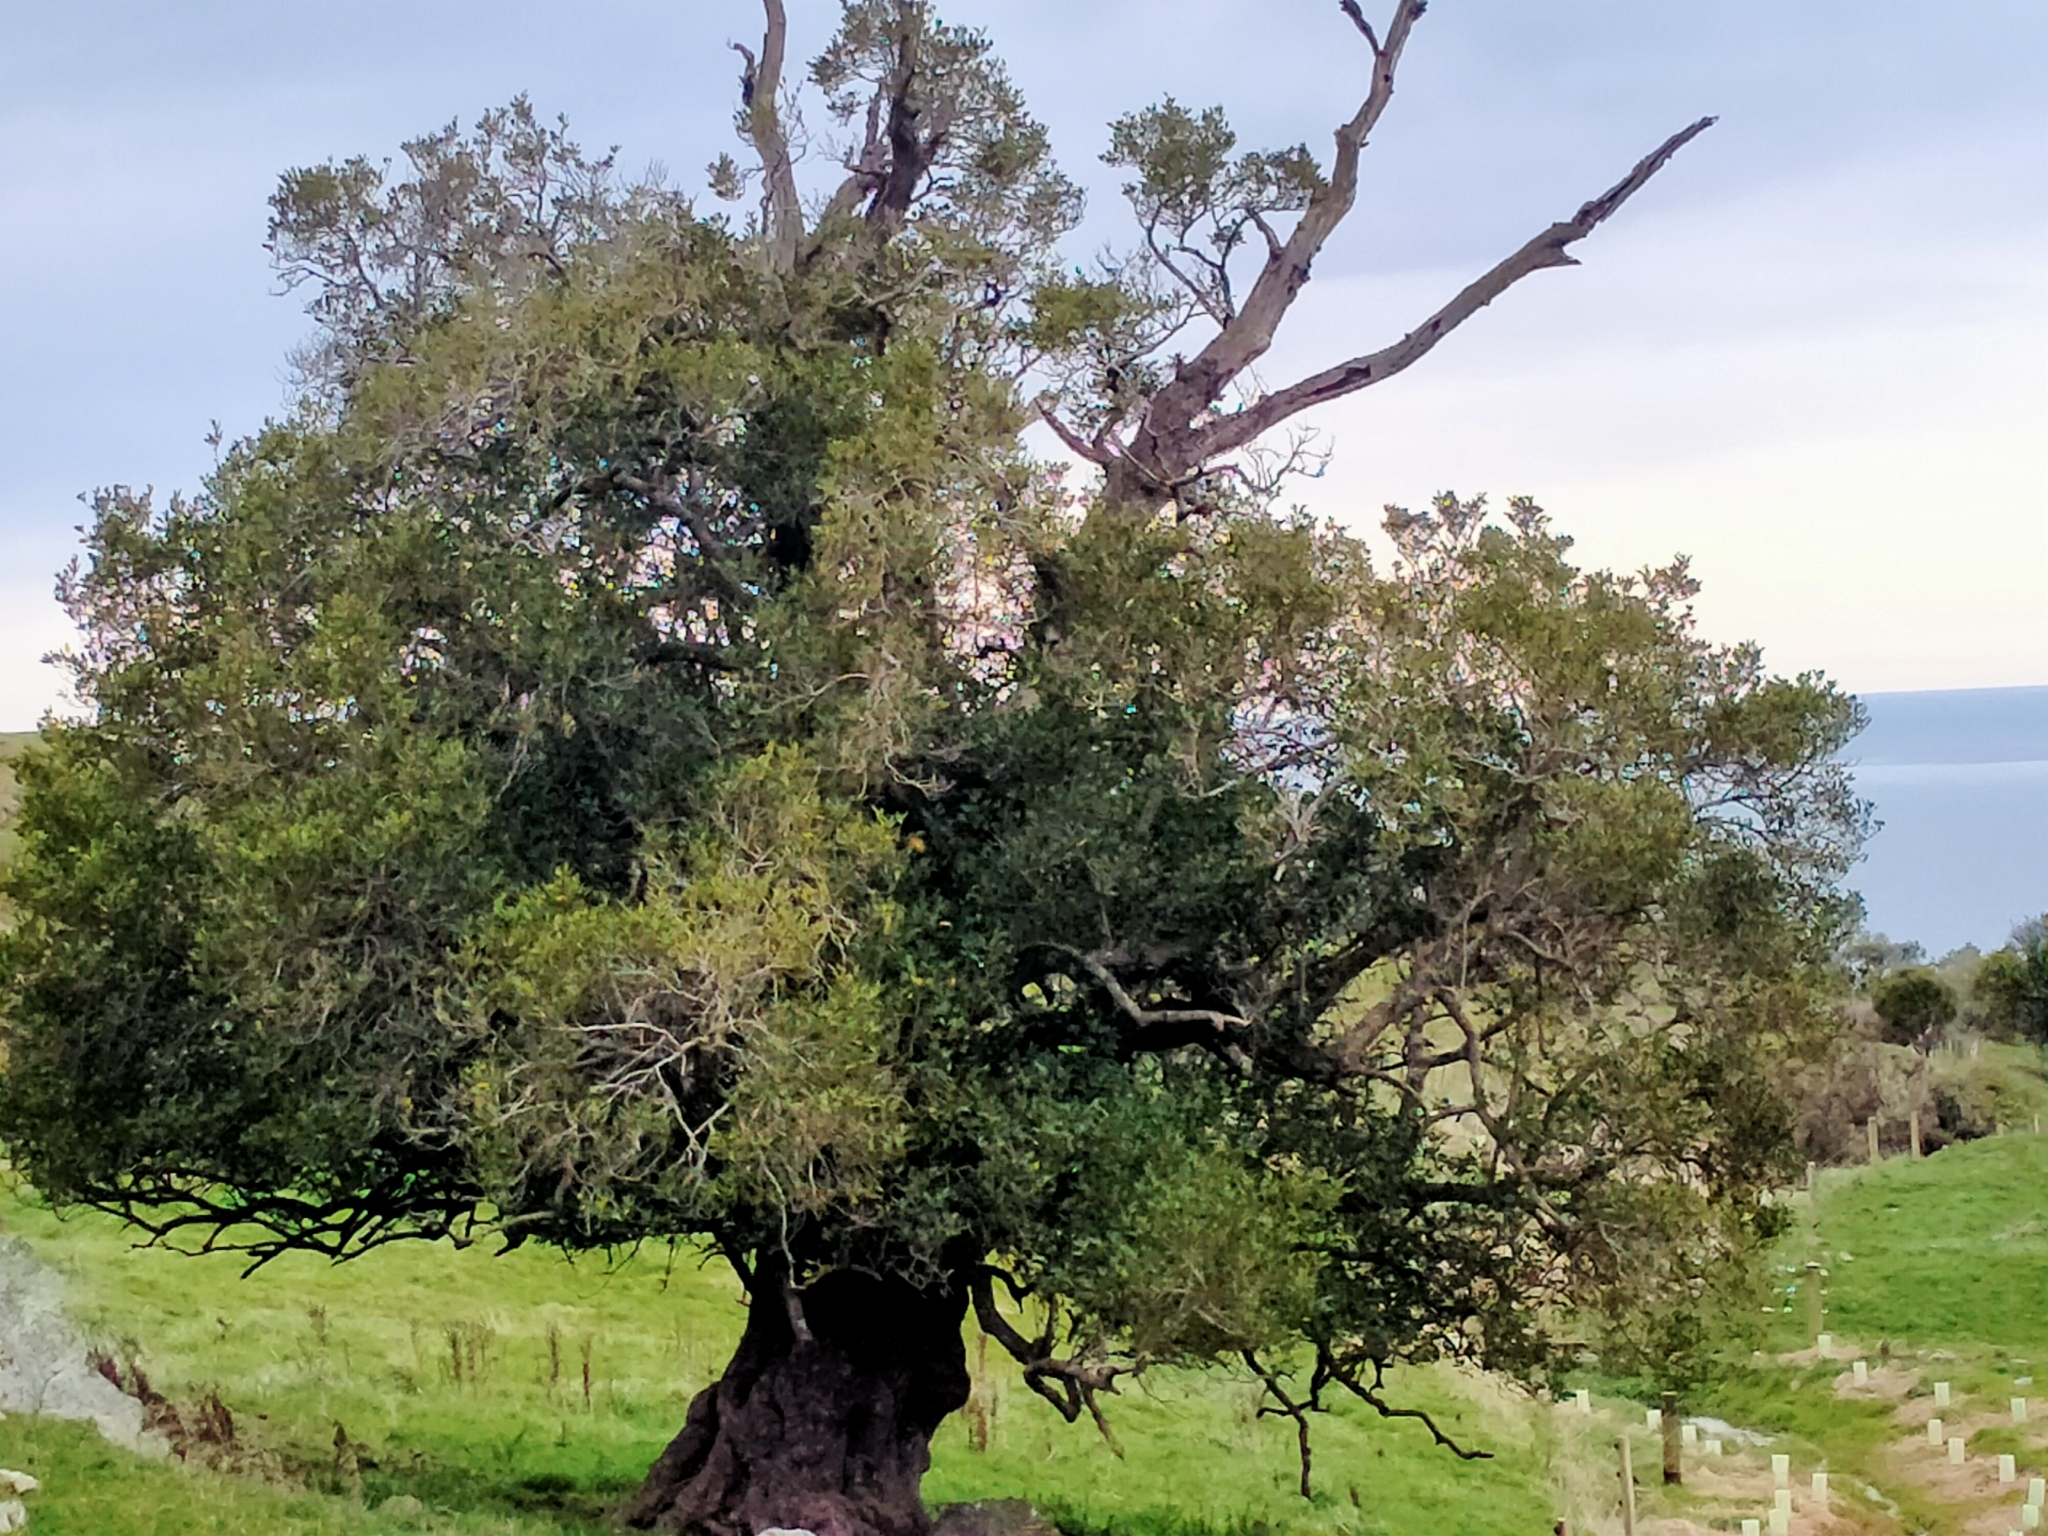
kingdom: Plantae
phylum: Tracheophyta
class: Magnoliopsida
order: Apiales
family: Griseliniaceae
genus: Griselinia
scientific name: Griselinia littoralis
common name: New zealand broadleaf
